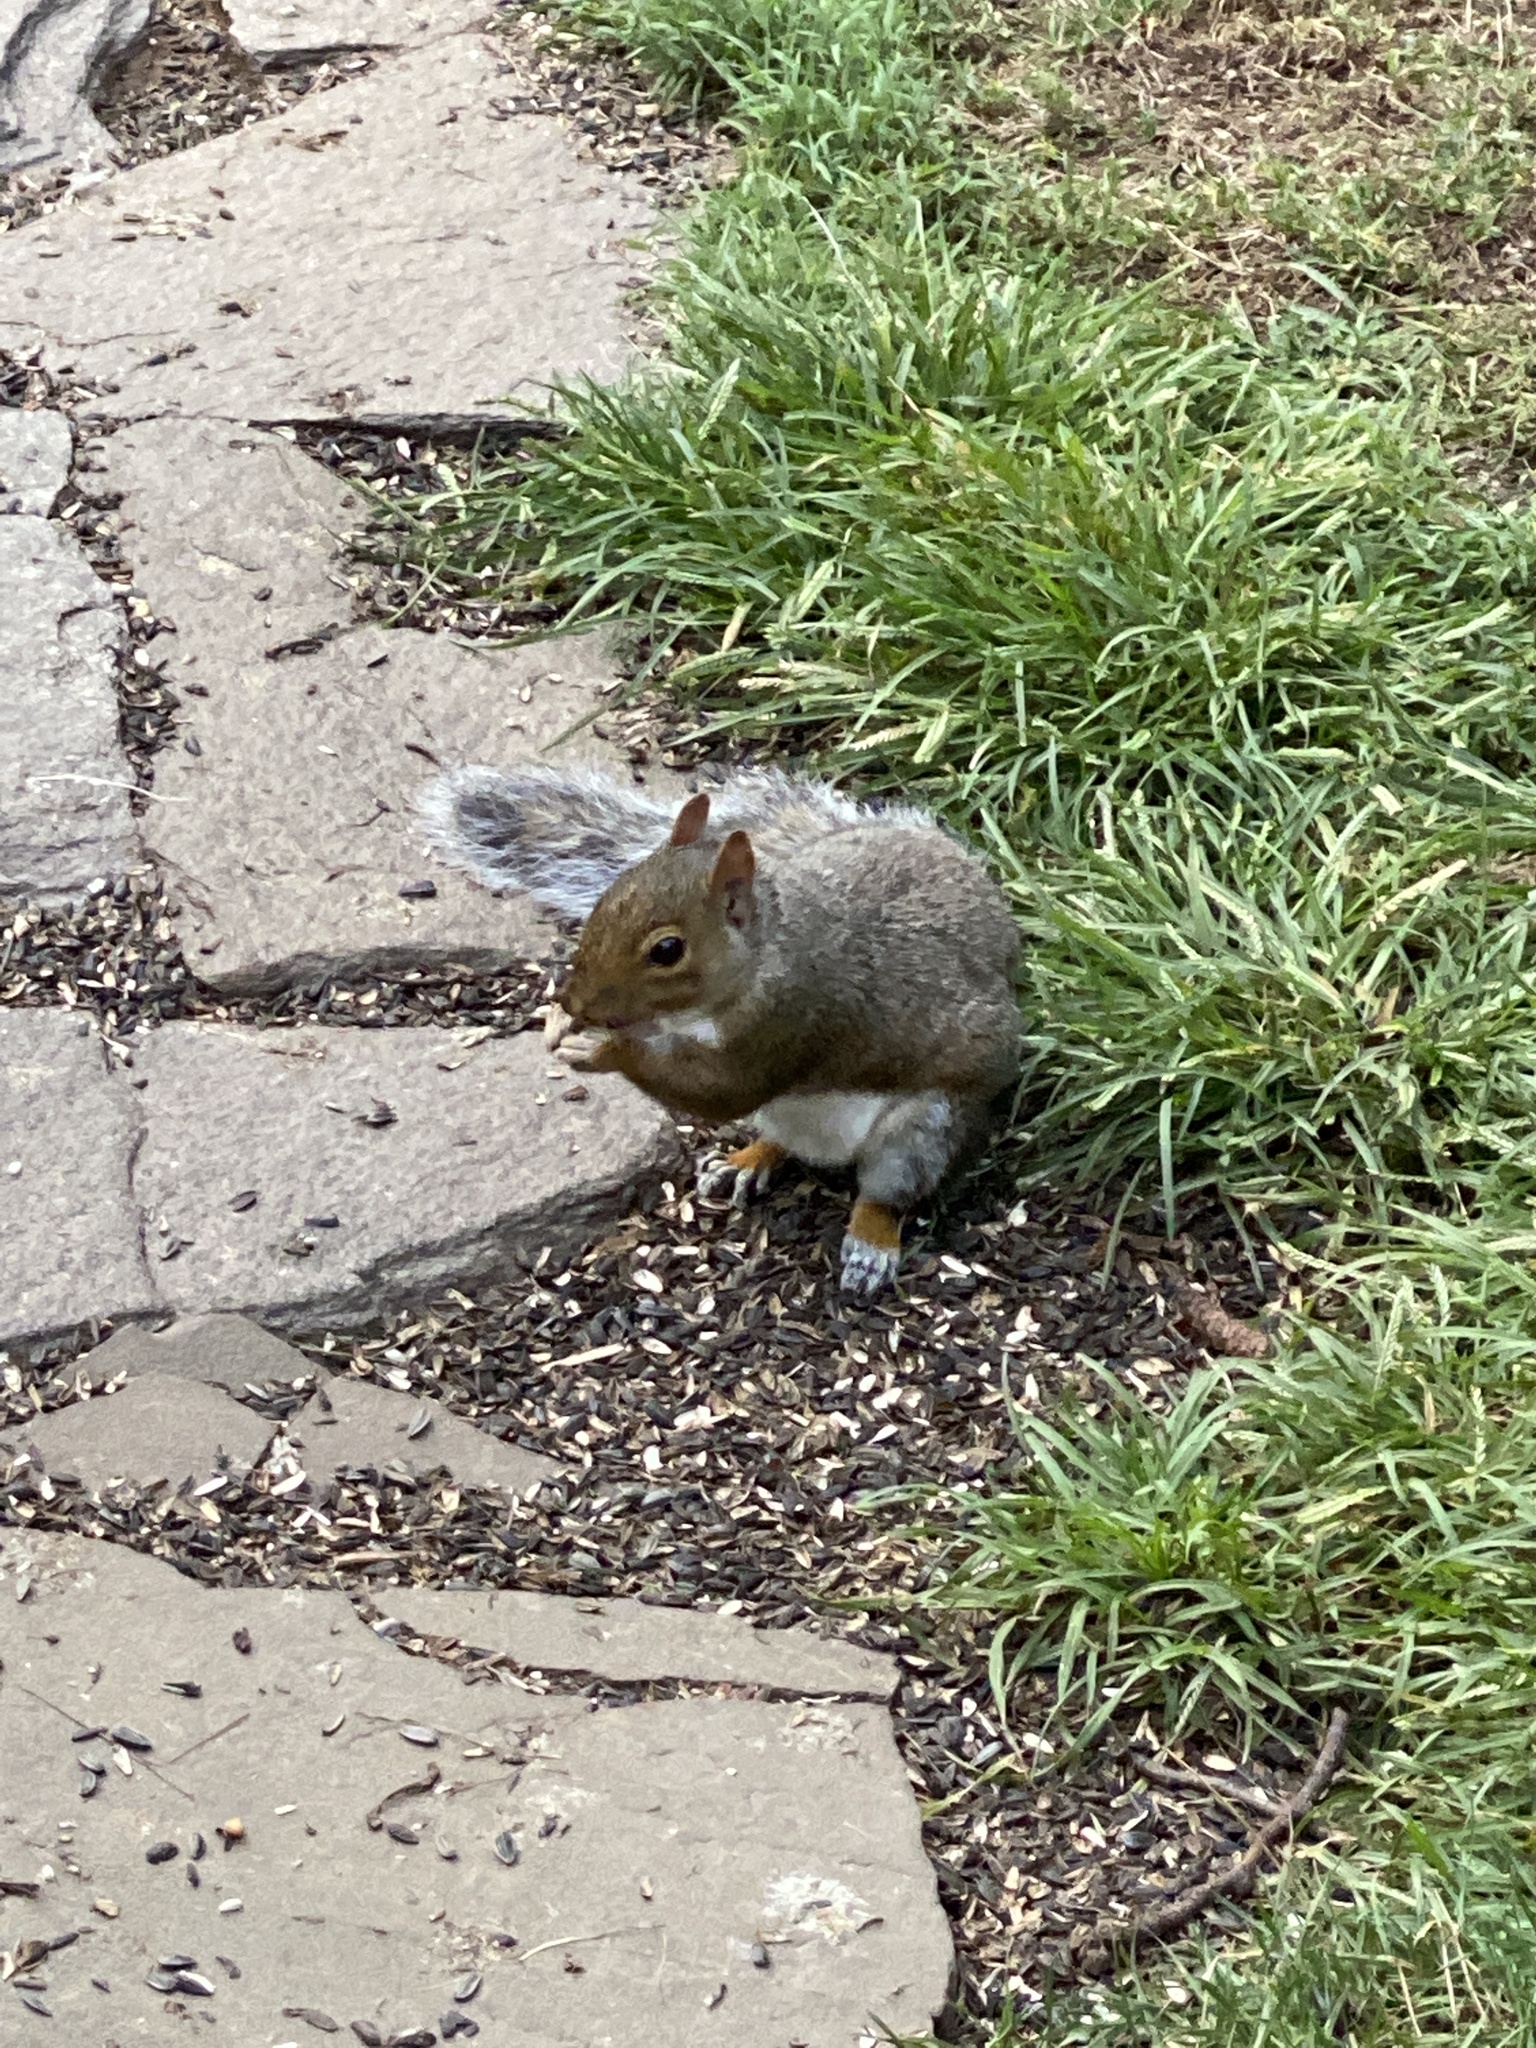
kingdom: Animalia
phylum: Chordata
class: Mammalia
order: Rodentia
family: Sciuridae
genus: Sciurus
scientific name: Sciurus carolinensis
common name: Eastern gray squirrel
